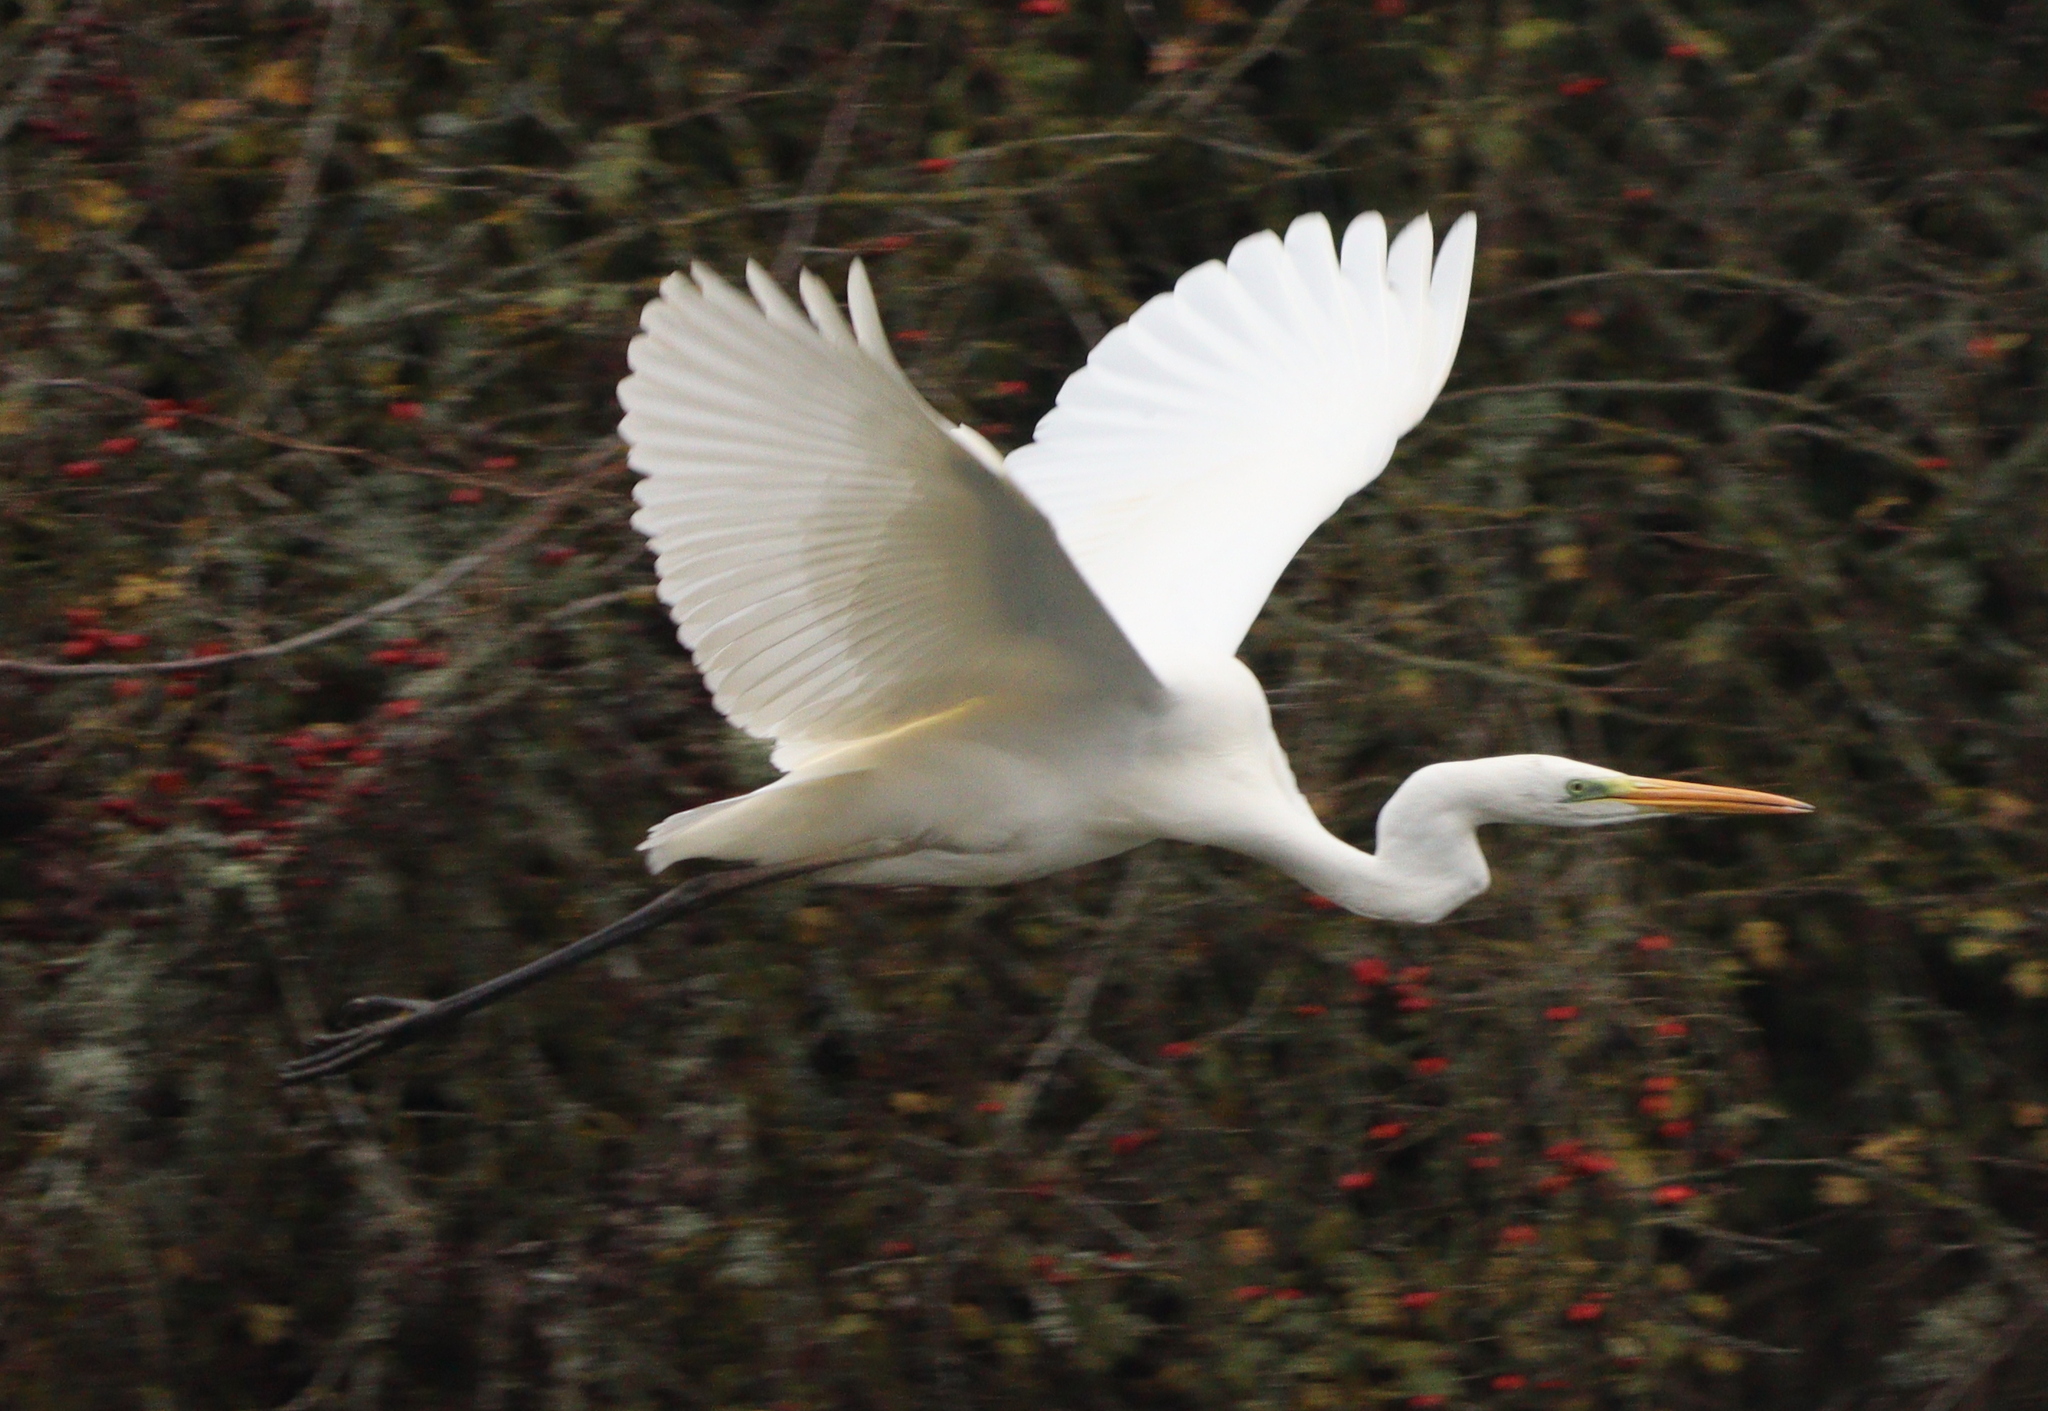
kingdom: Animalia
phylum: Chordata
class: Aves
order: Pelecaniformes
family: Ardeidae
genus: Ardea
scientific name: Ardea alba
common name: Great egret
